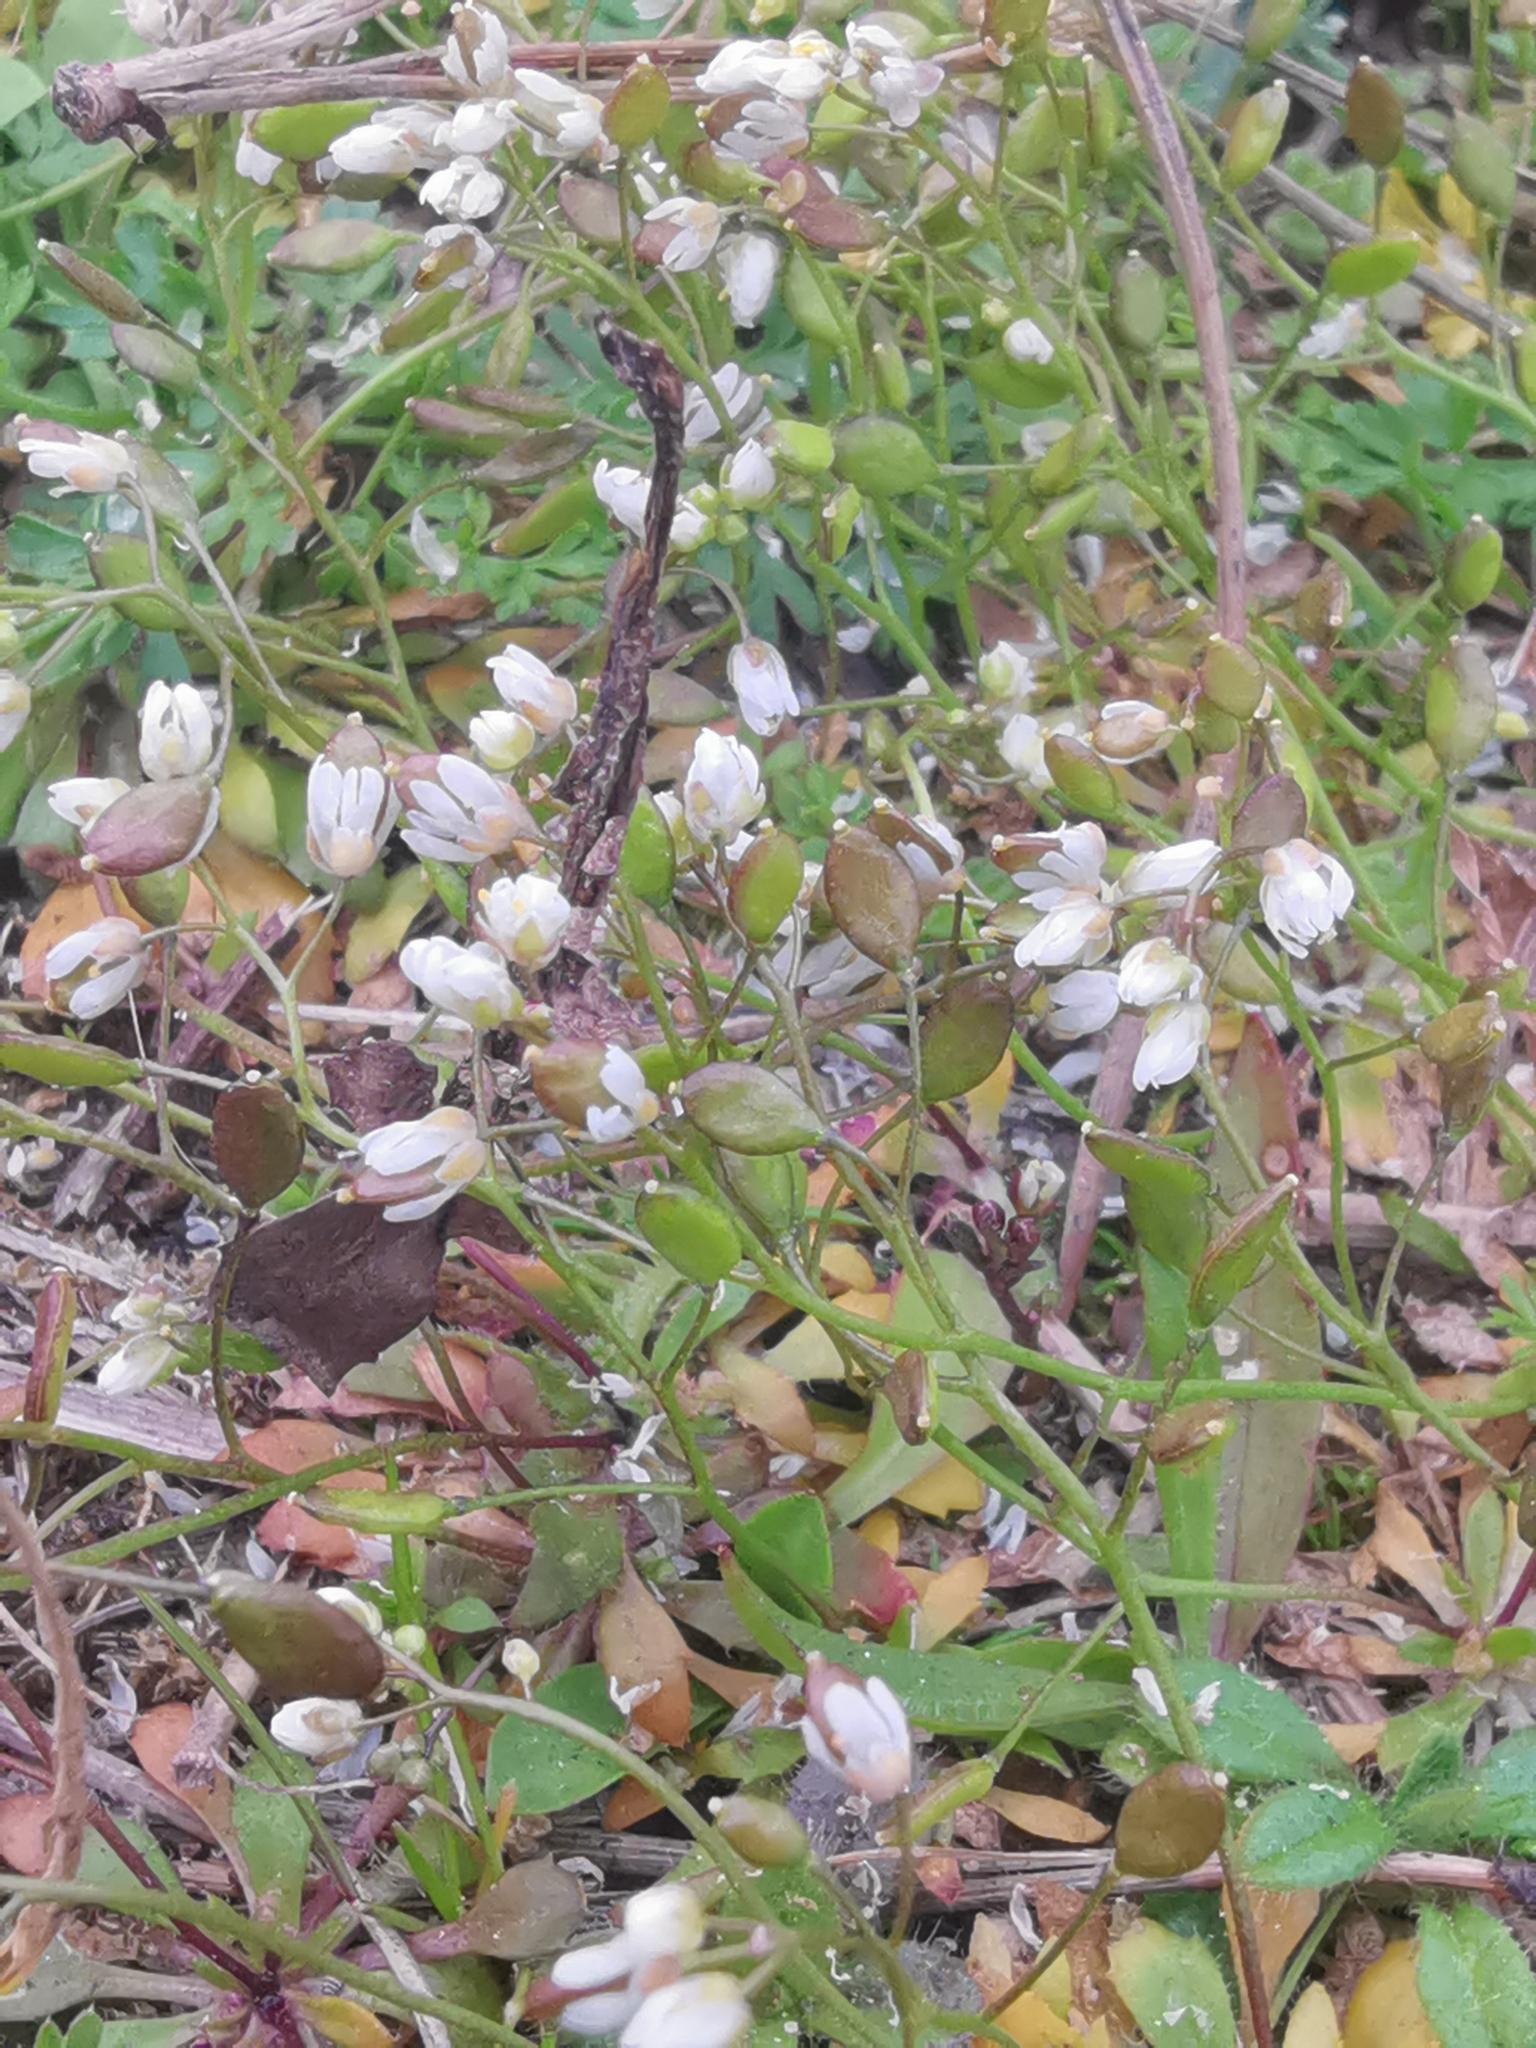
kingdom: Plantae
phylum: Tracheophyta
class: Magnoliopsida
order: Brassicales
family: Brassicaceae
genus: Draba
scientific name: Draba verna
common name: Spring draba
